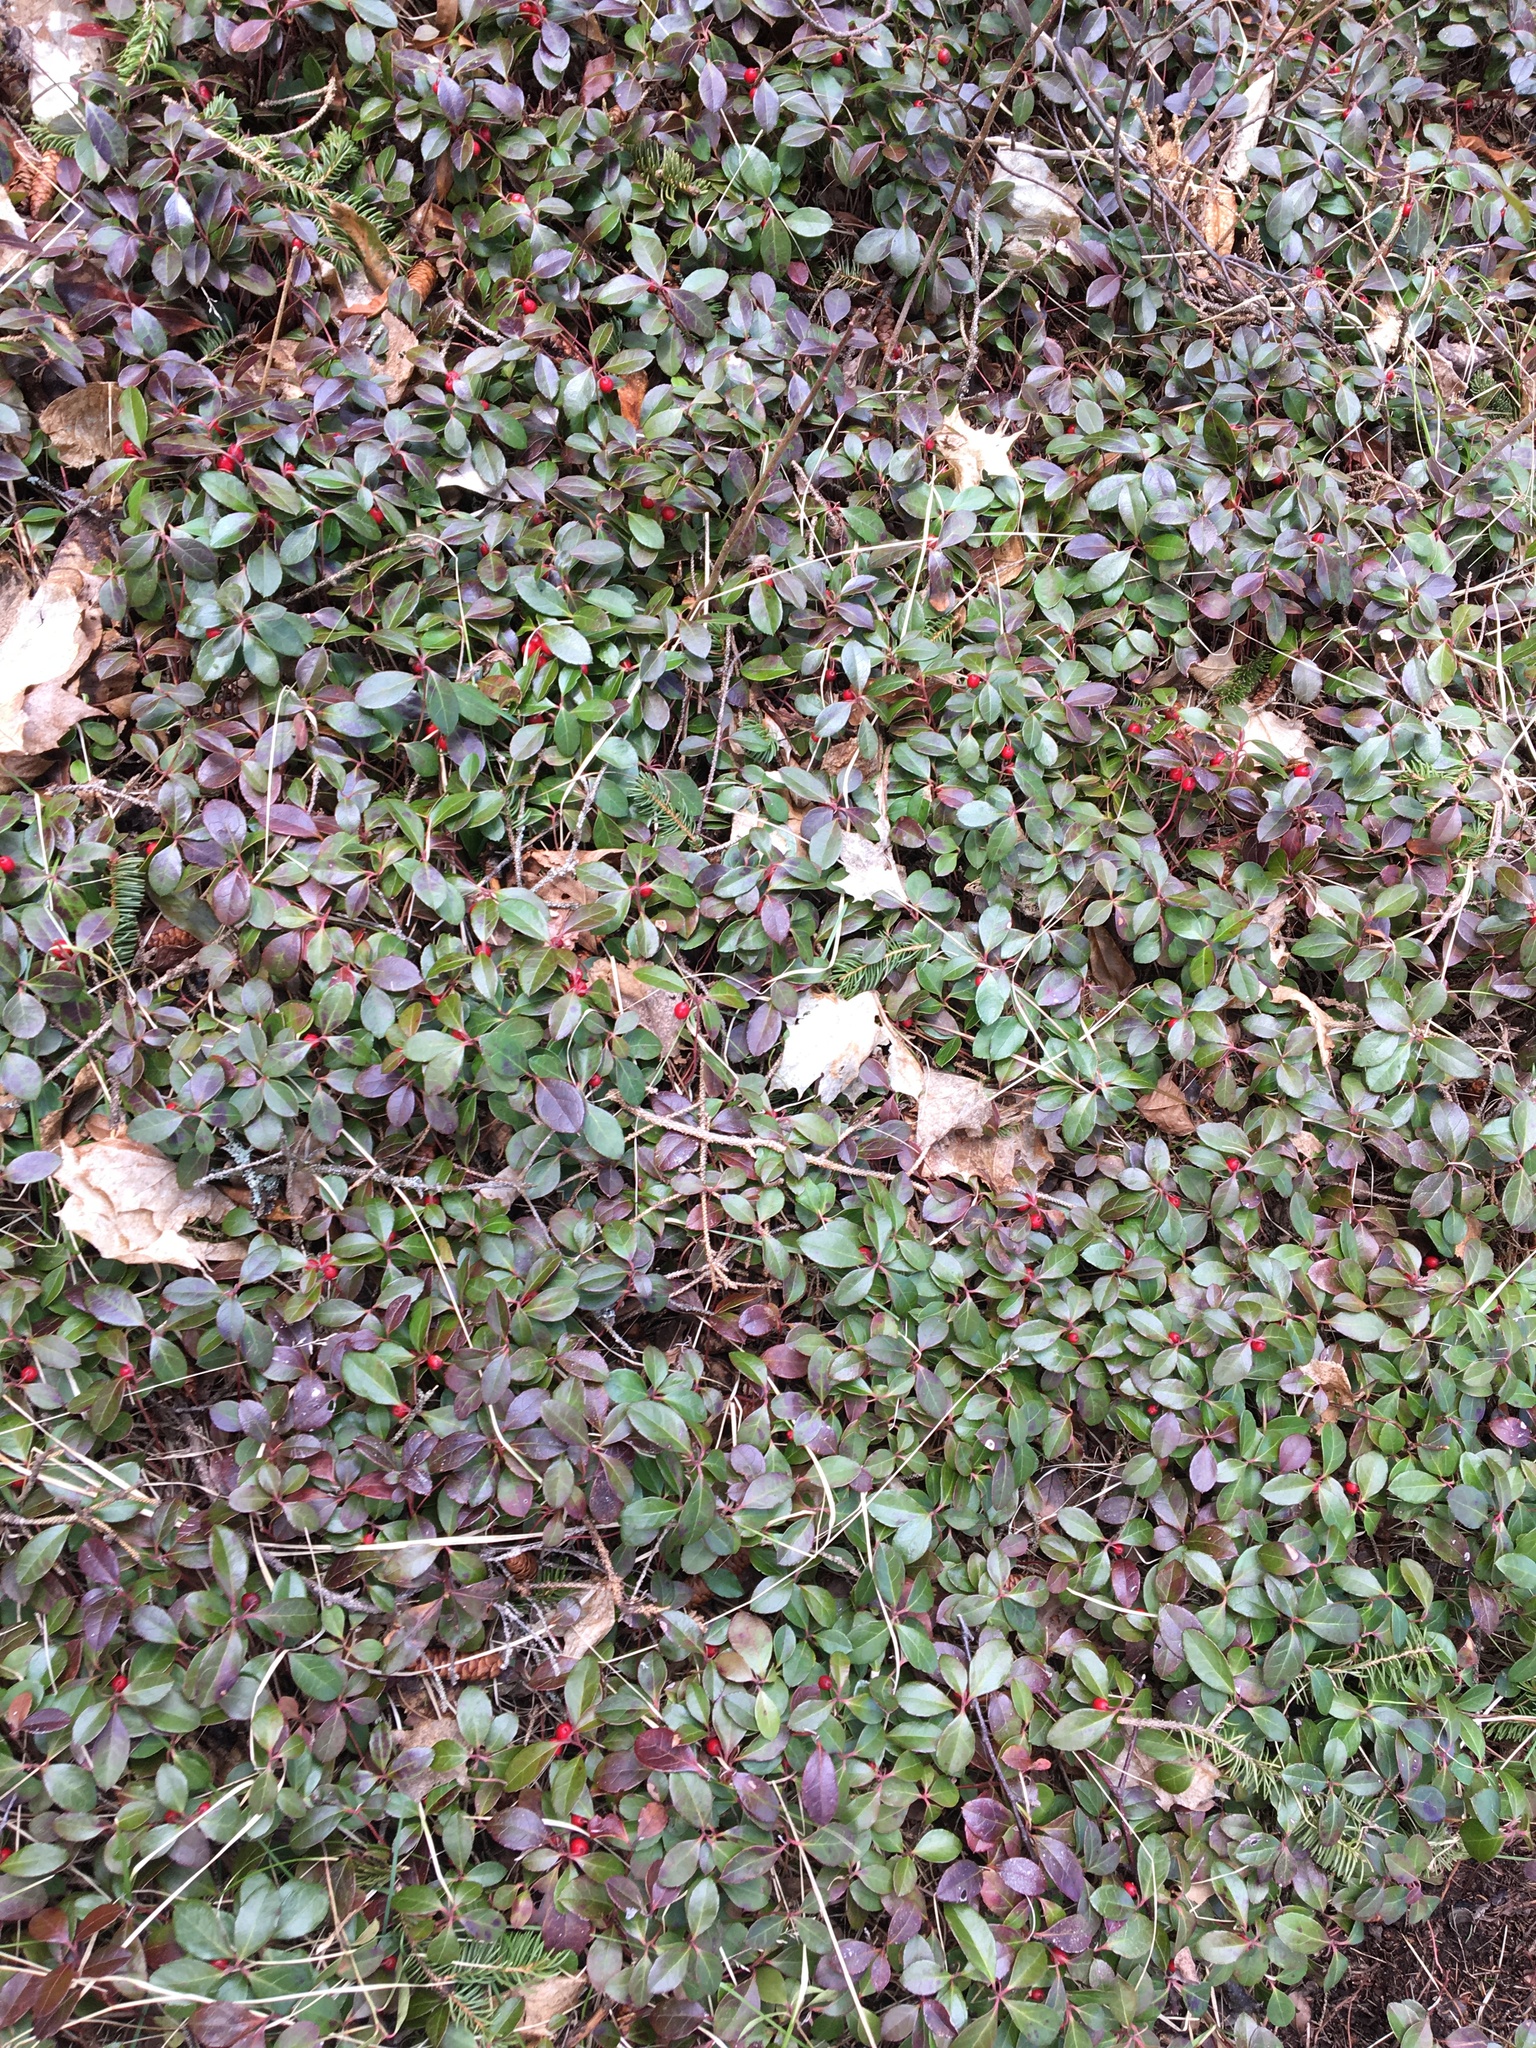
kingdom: Plantae
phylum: Tracheophyta
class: Magnoliopsida
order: Ericales
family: Ericaceae
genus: Gaultheria
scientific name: Gaultheria procumbens
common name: Checkerberry
